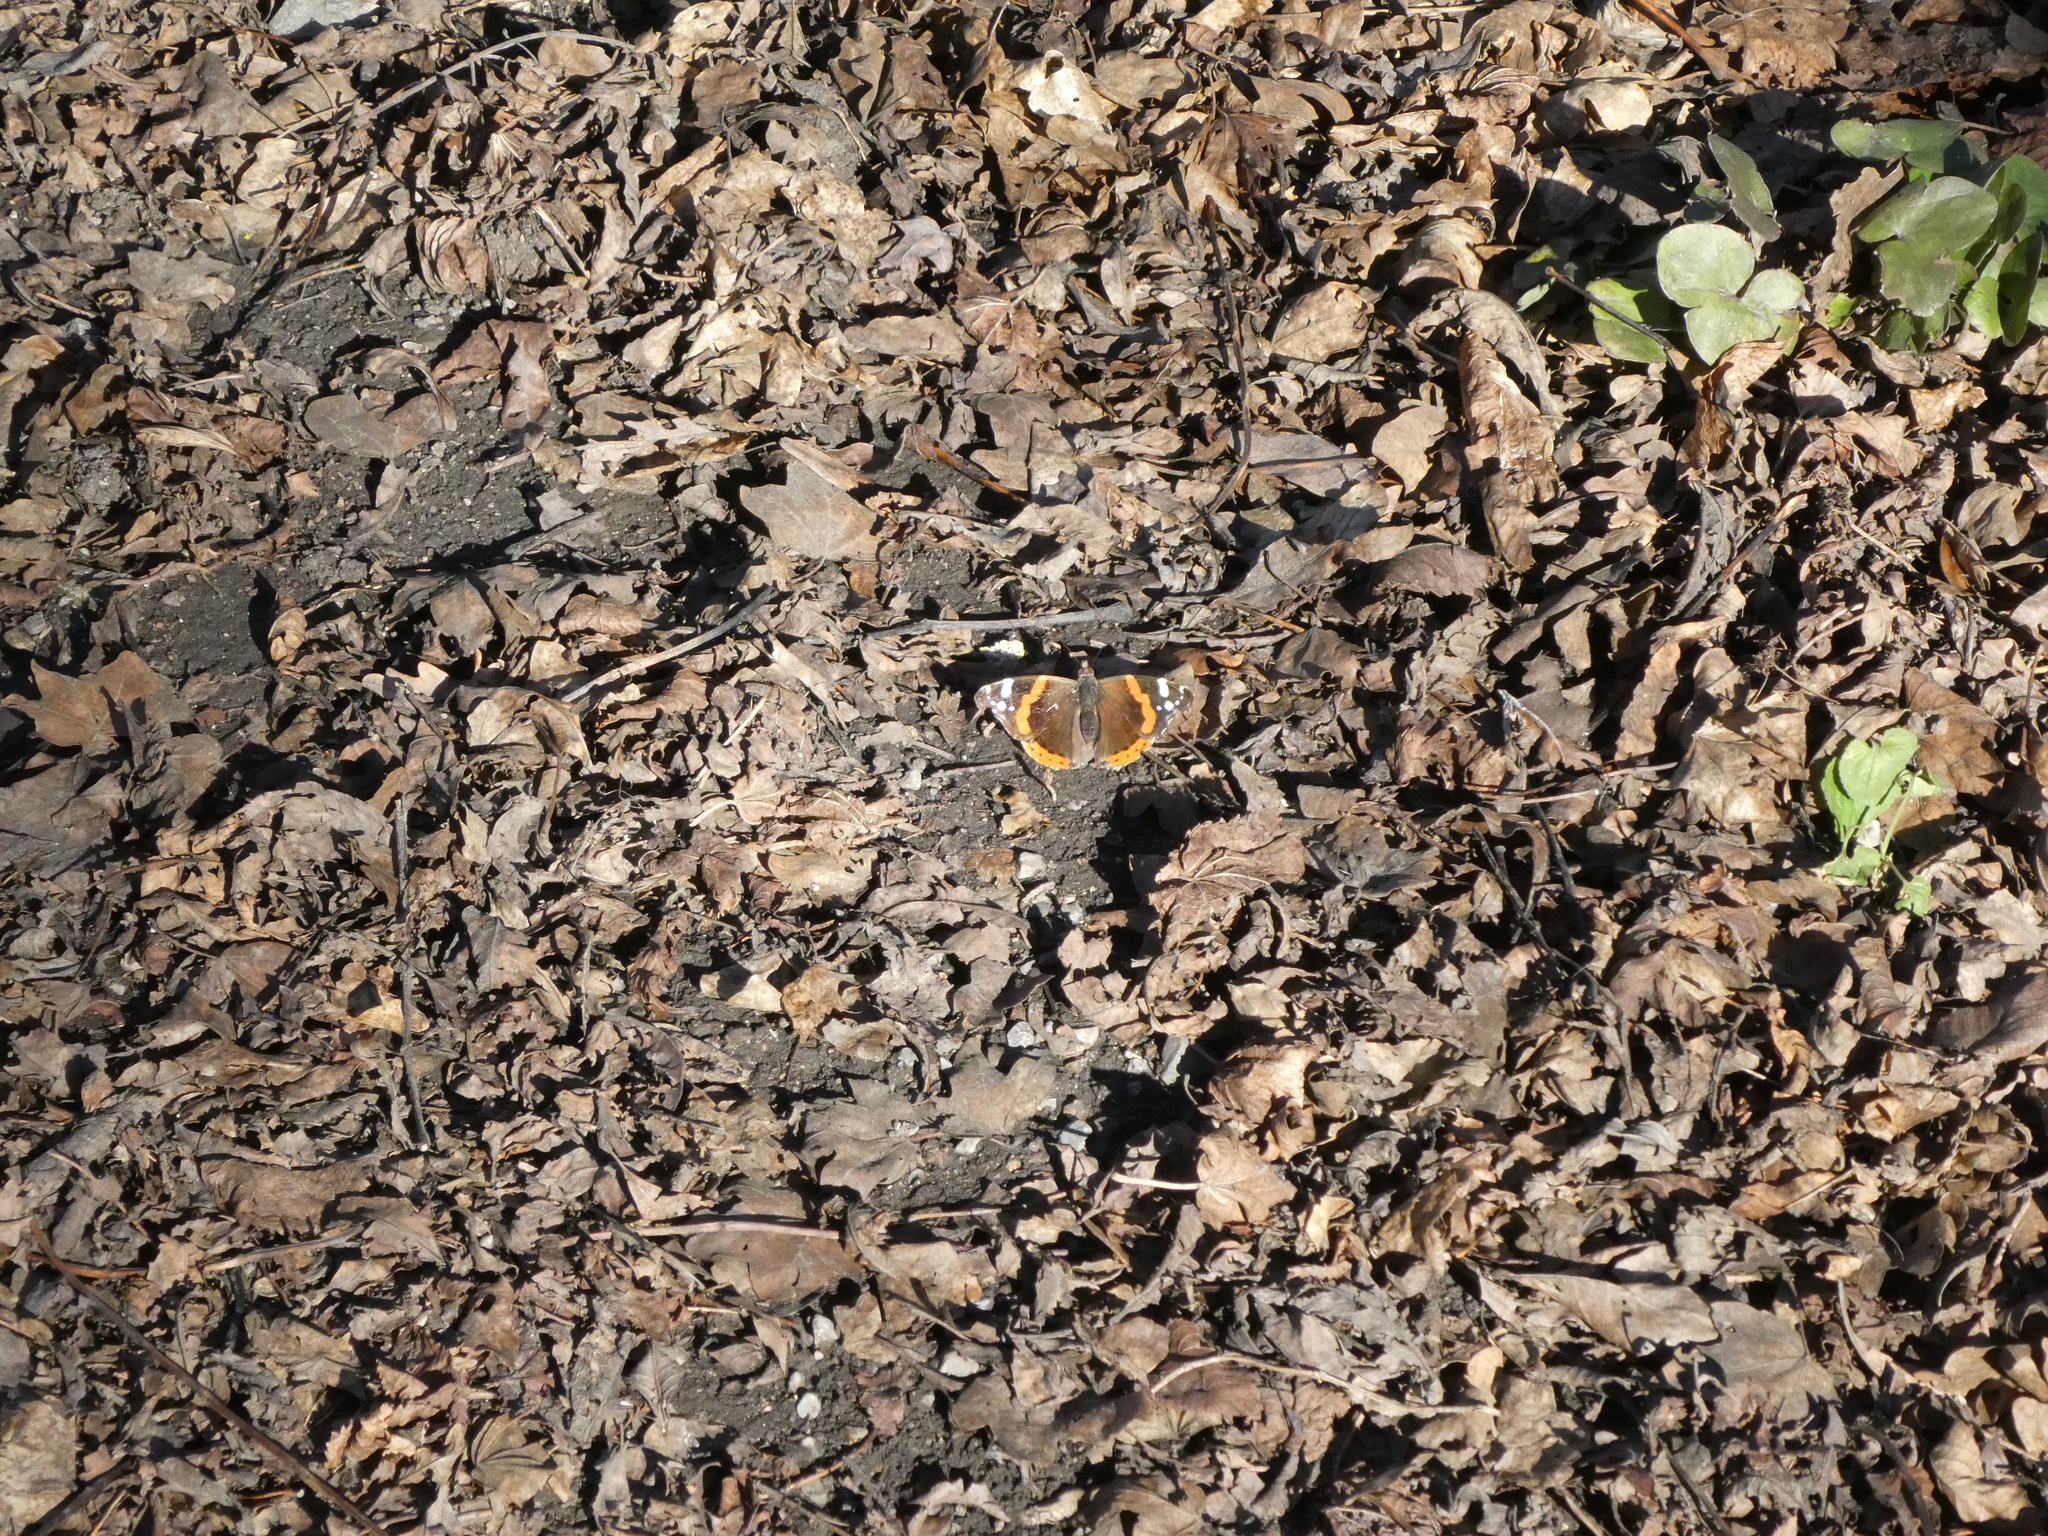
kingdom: Animalia
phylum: Arthropoda
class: Insecta
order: Lepidoptera
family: Nymphalidae
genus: Vanessa
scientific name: Vanessa atalanta
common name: Red admiral
